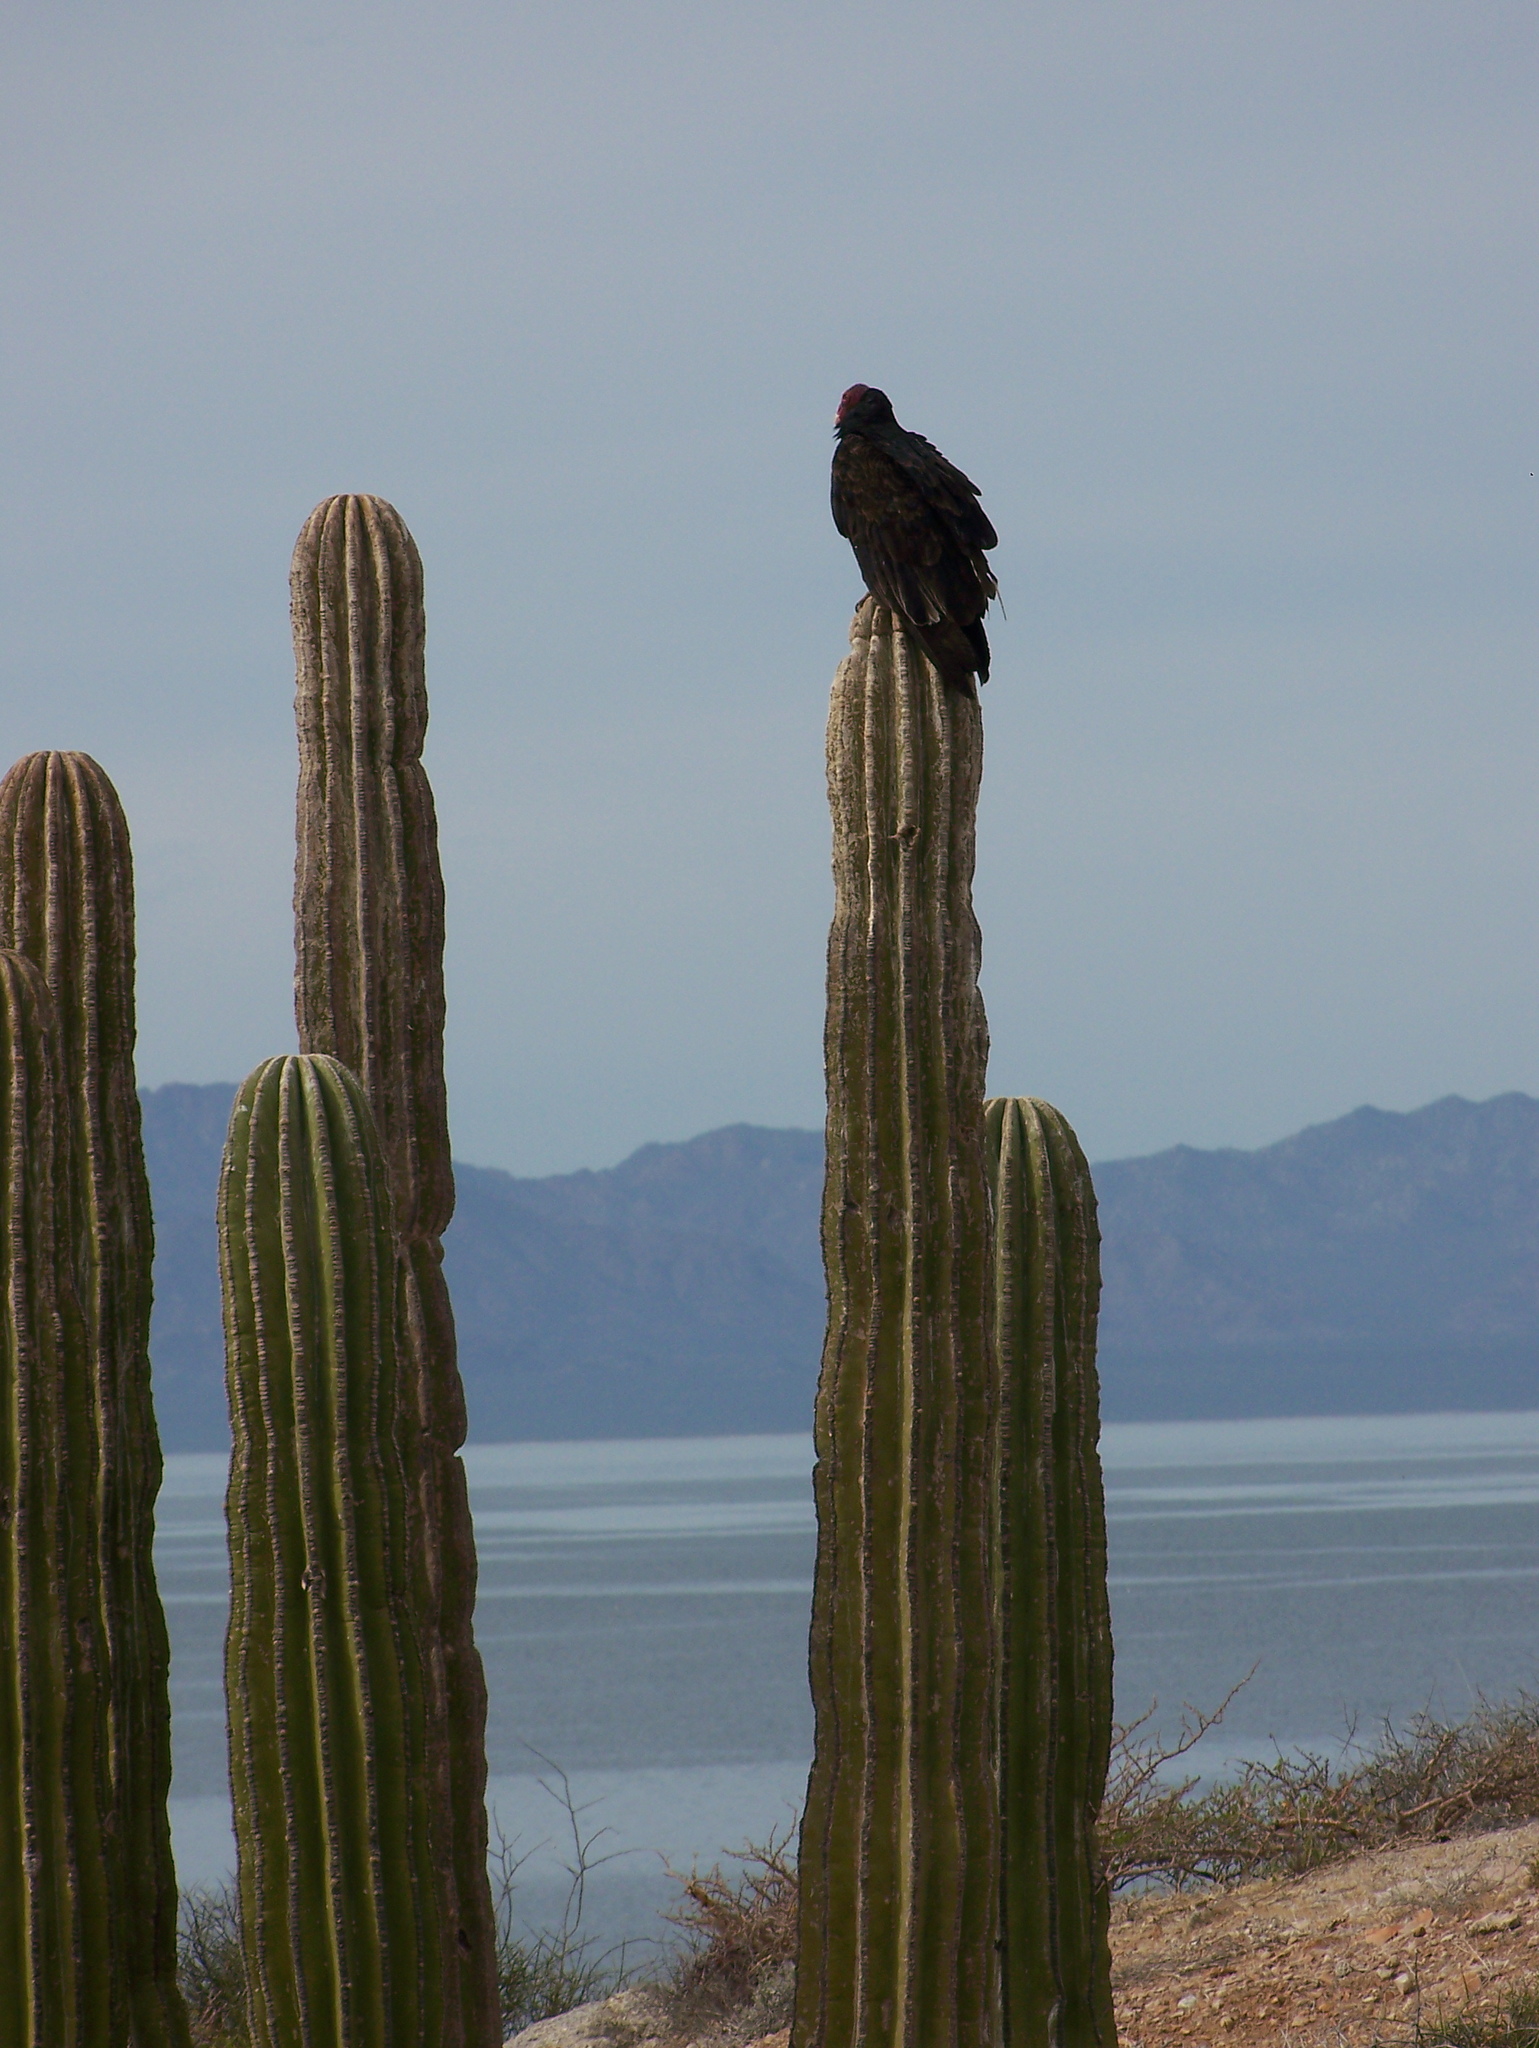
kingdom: Animalia
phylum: Chordata
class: Aves
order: Accipitriformes
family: Cathartidae
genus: Cathartes
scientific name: Cathartes aura
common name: Turkey vulture
